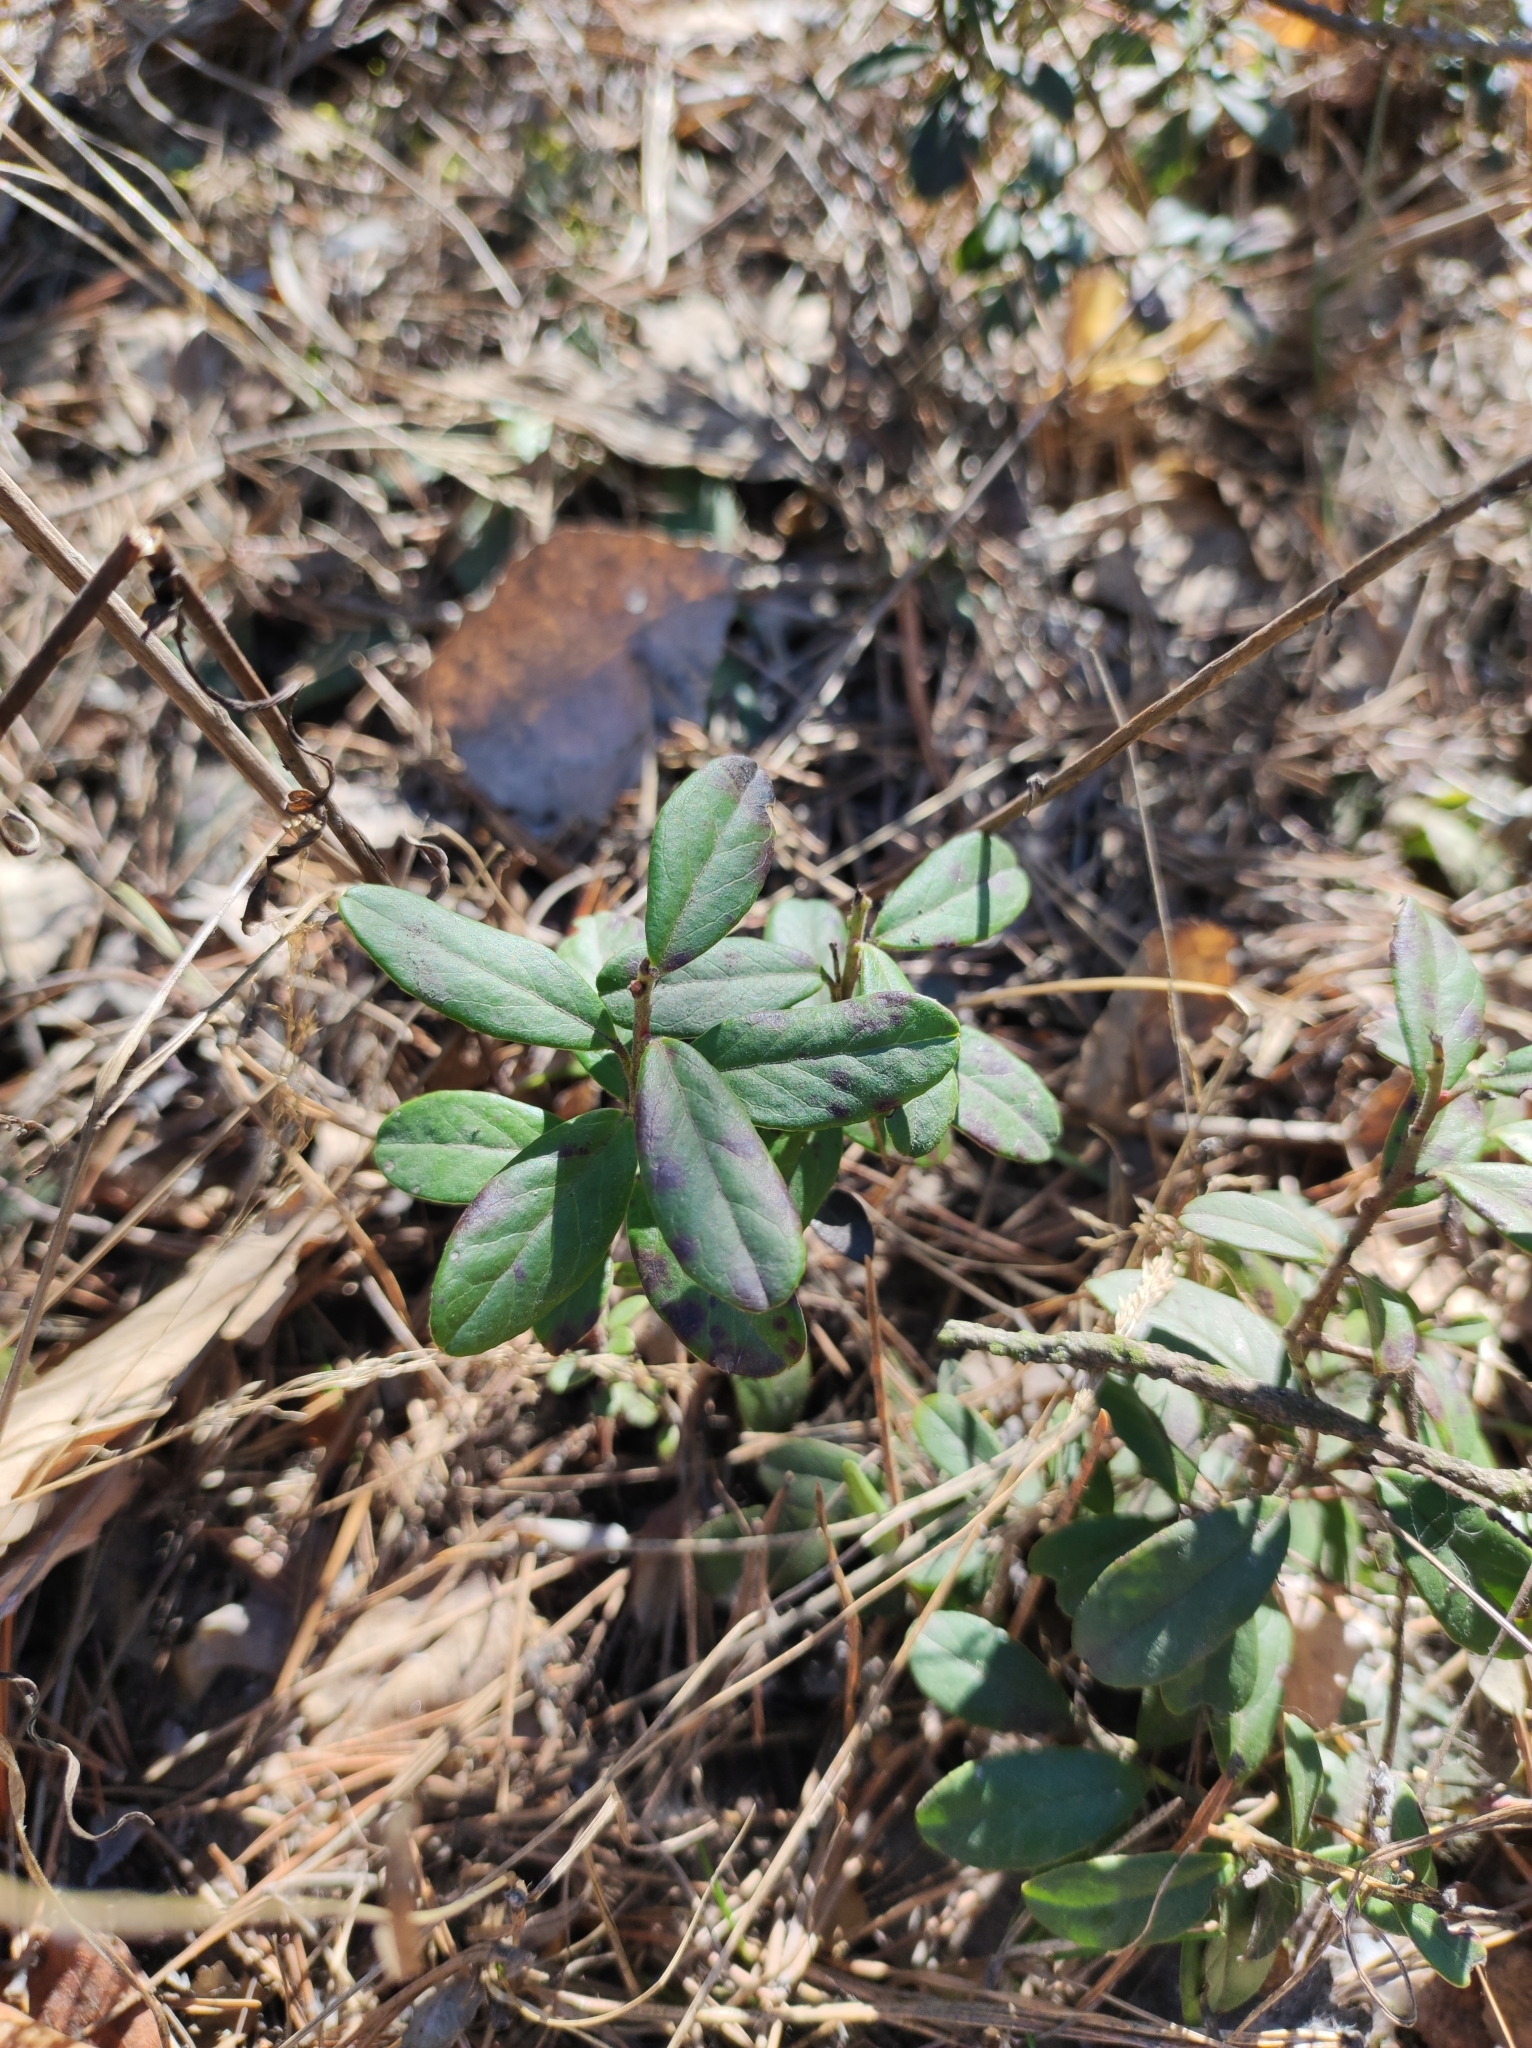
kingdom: Plantae
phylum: Tracheophyta
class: Magnoliopsida
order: Ericales
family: Ericaceae
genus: Vaccinium
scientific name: Vaccinium vitis-idaea
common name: Cowberry
